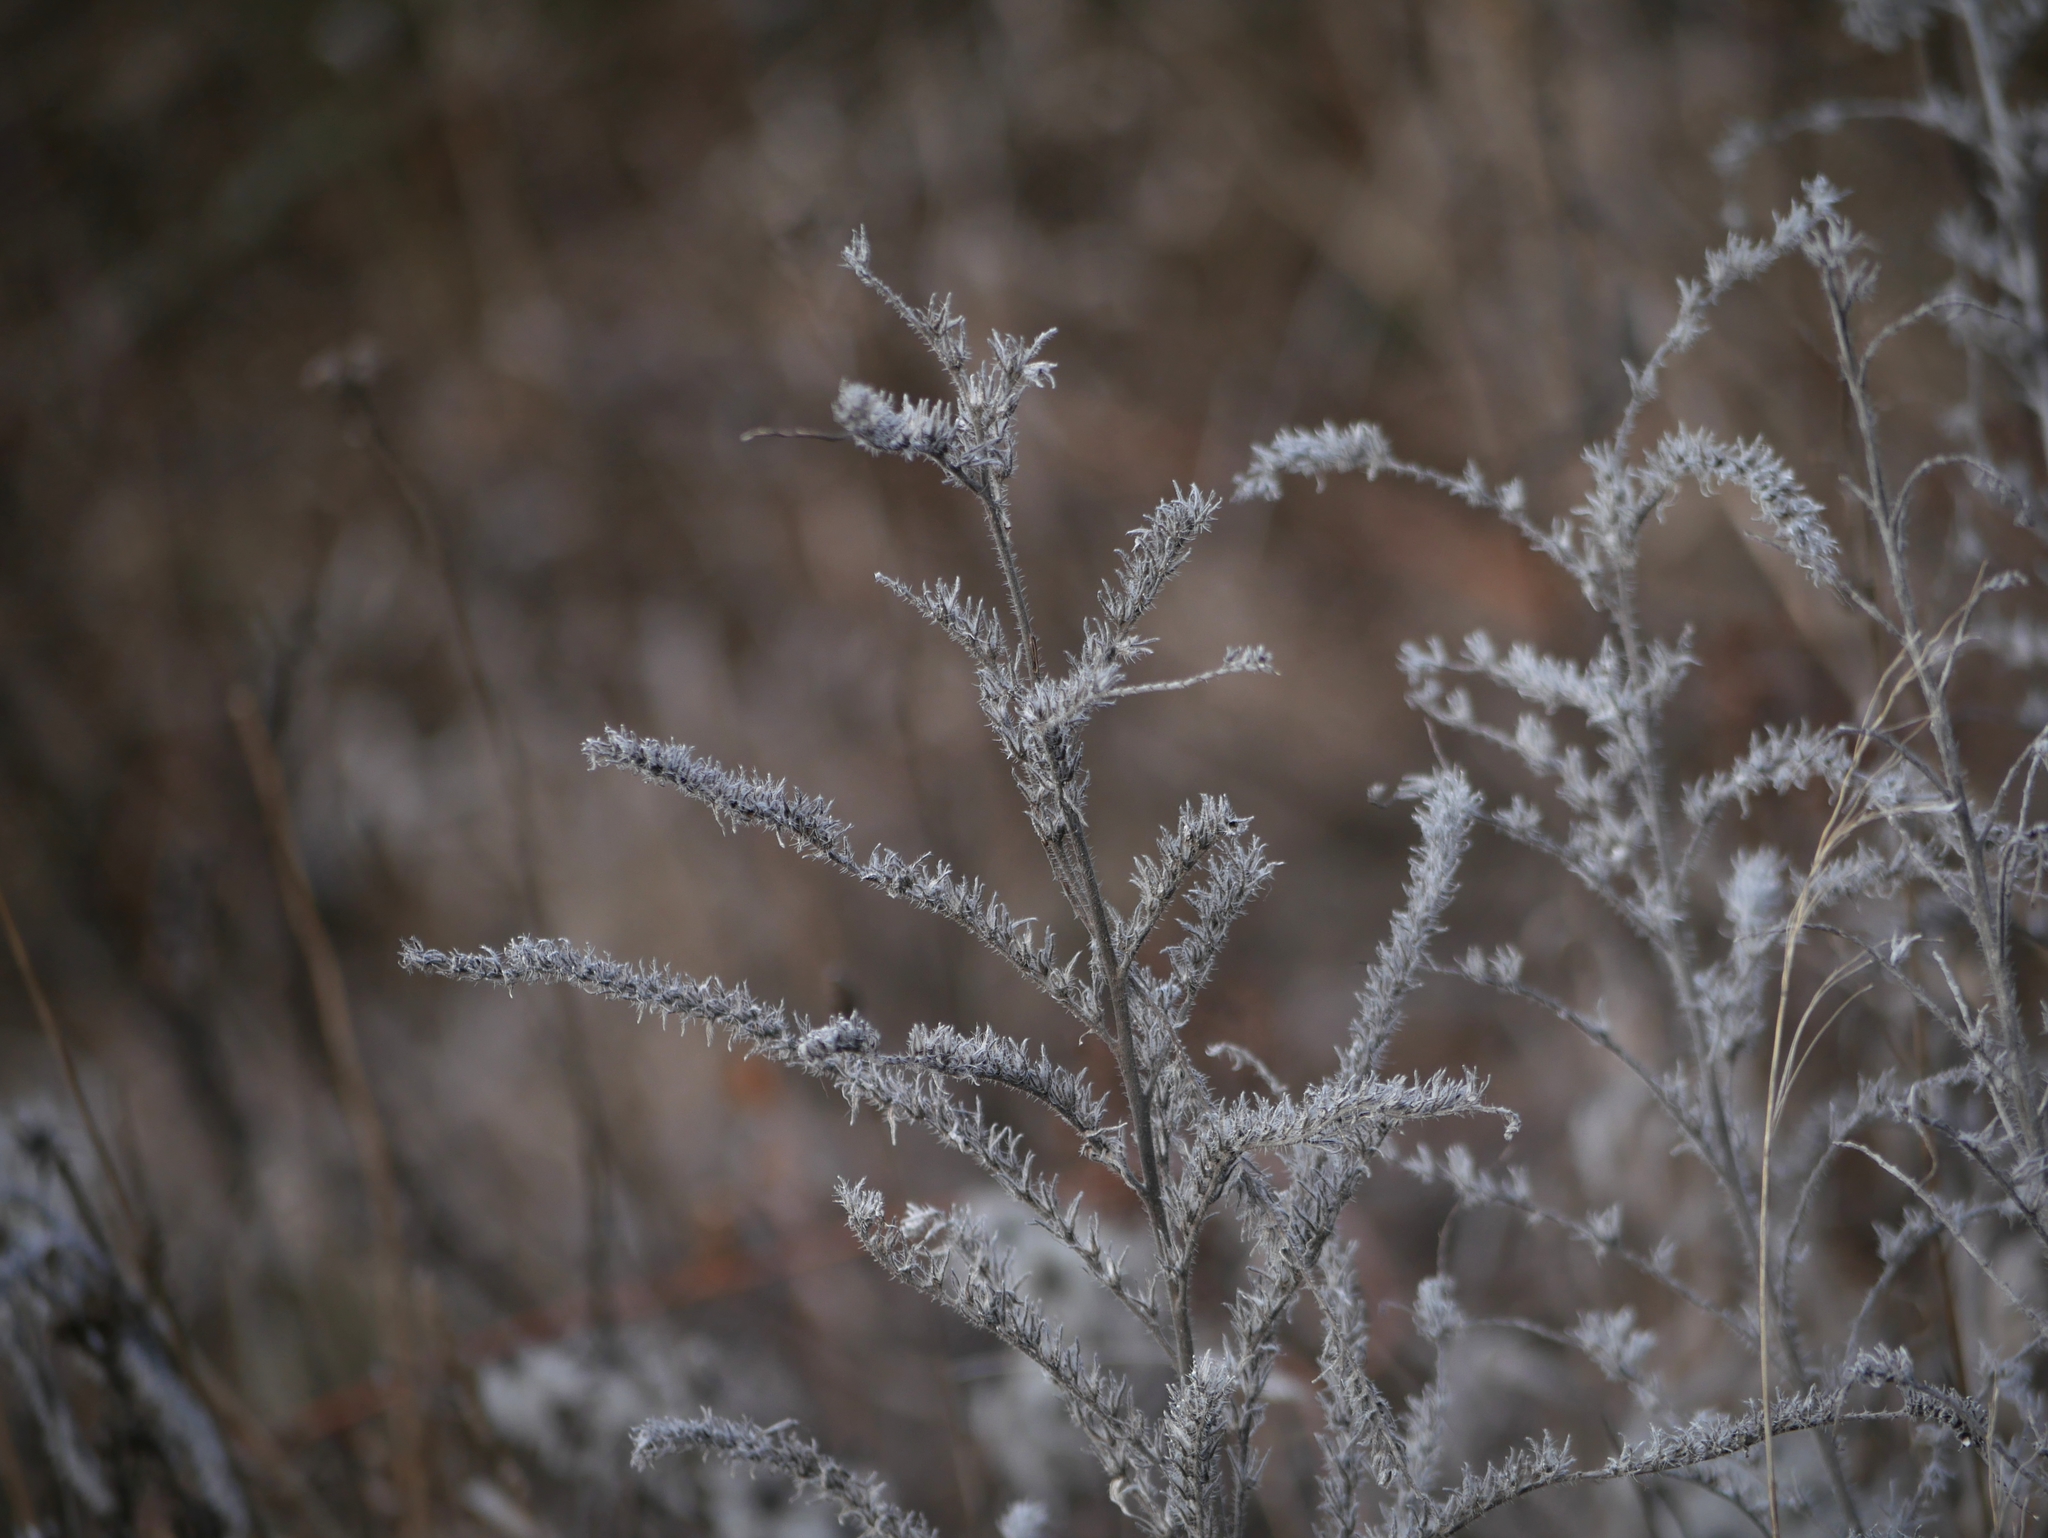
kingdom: Plantae
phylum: Tracheophyta
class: Magnoliopsida
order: Boraginales
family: Boraginaceae
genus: Echium
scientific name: Echium vulgare
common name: Common viper's bugloss
